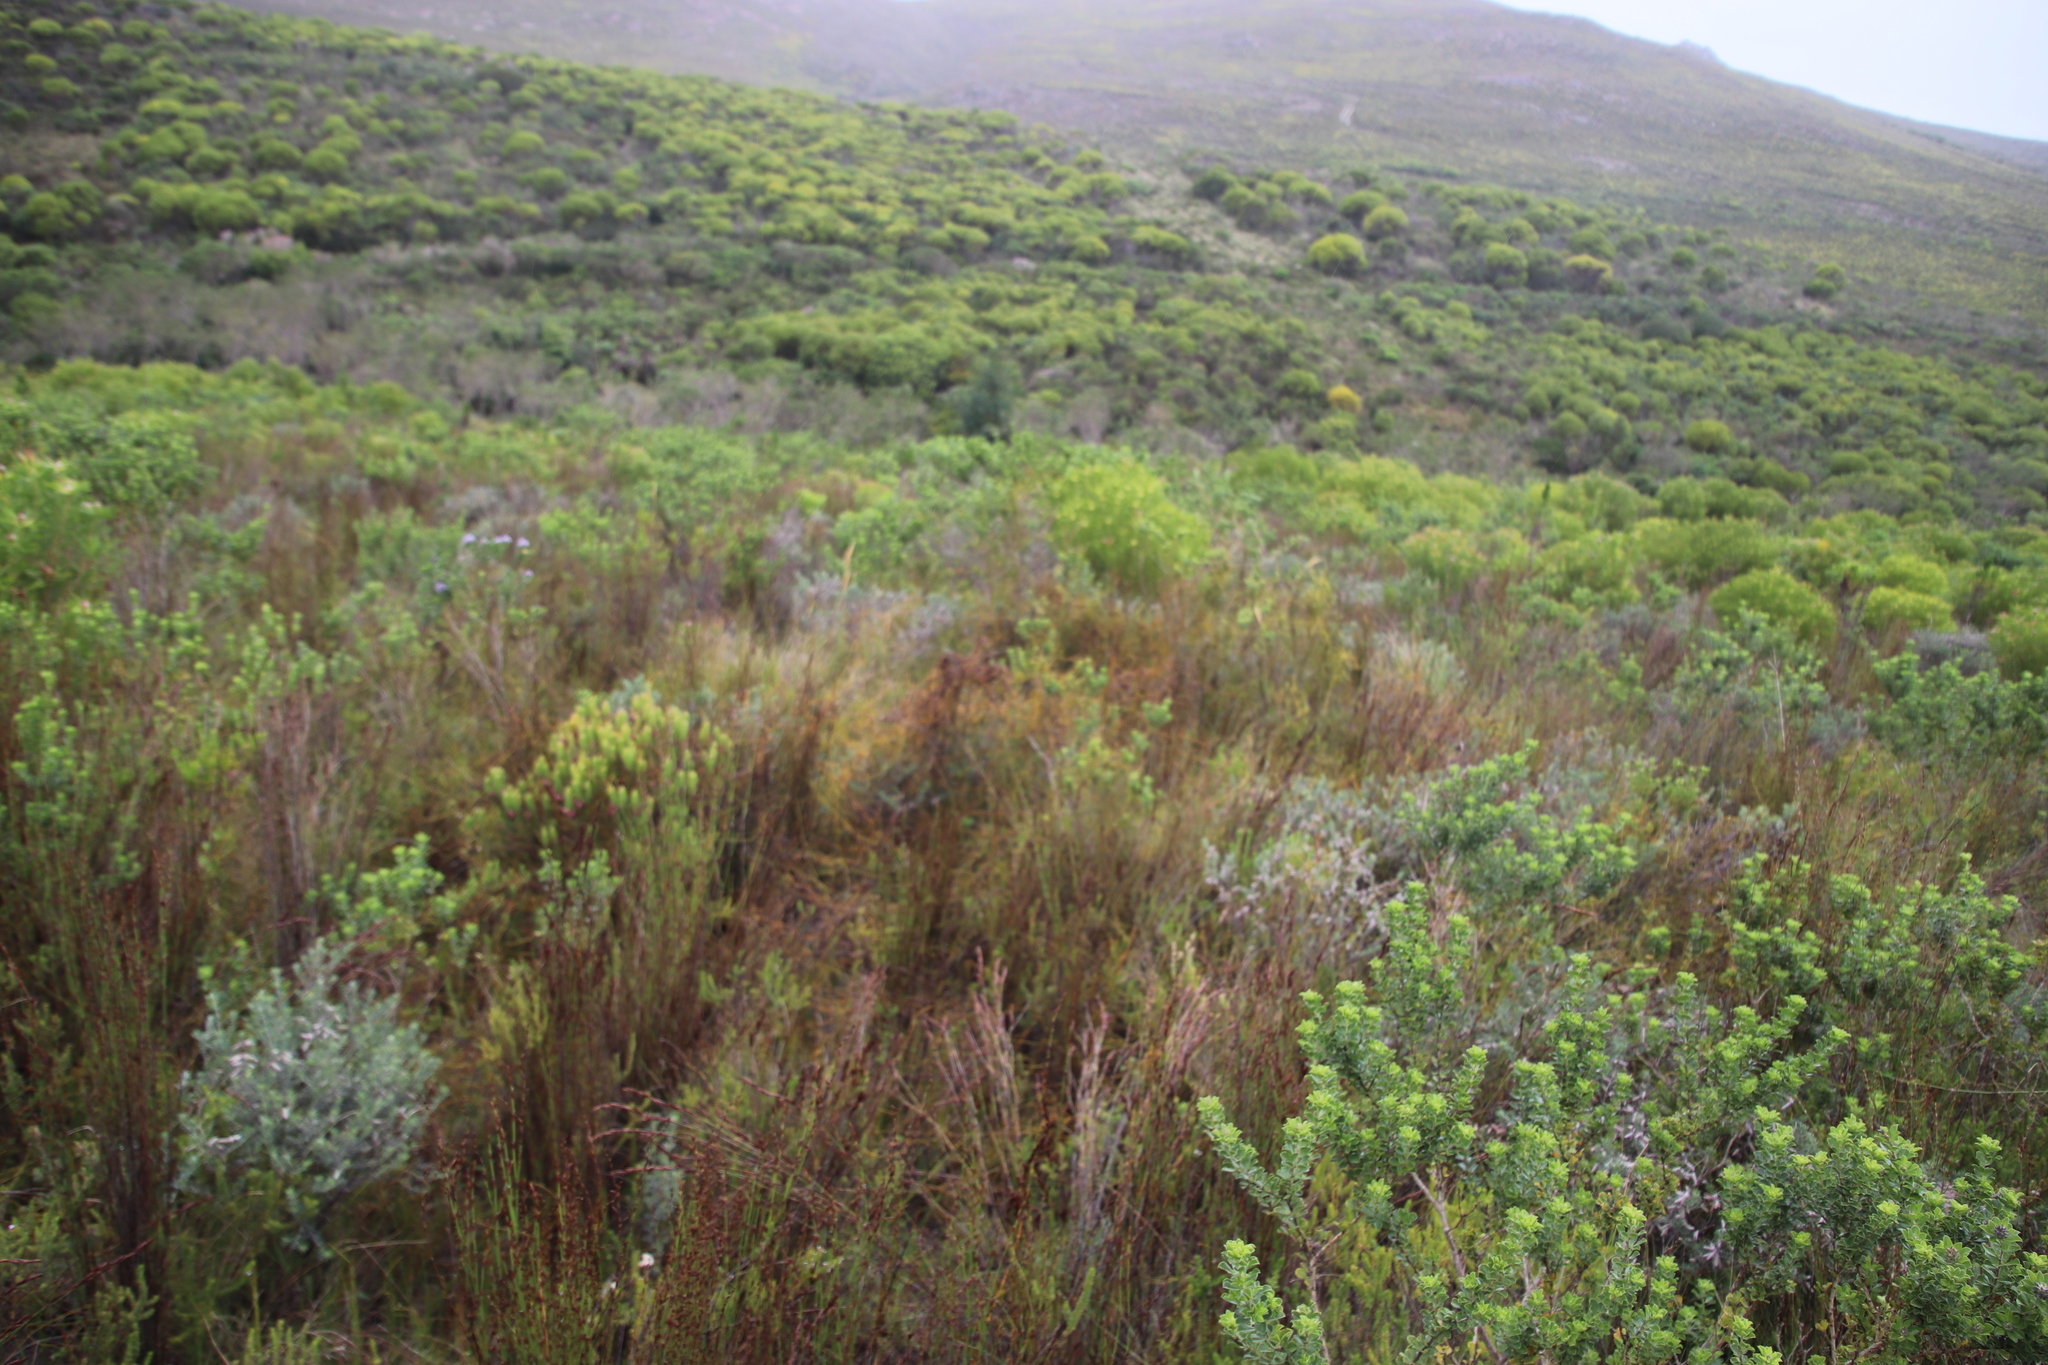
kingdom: Plantae
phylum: Tracheophyta
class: Magnoliopsida
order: Laurales
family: Lauraceae
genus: Cassytha
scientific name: Cassytha ciliolata
